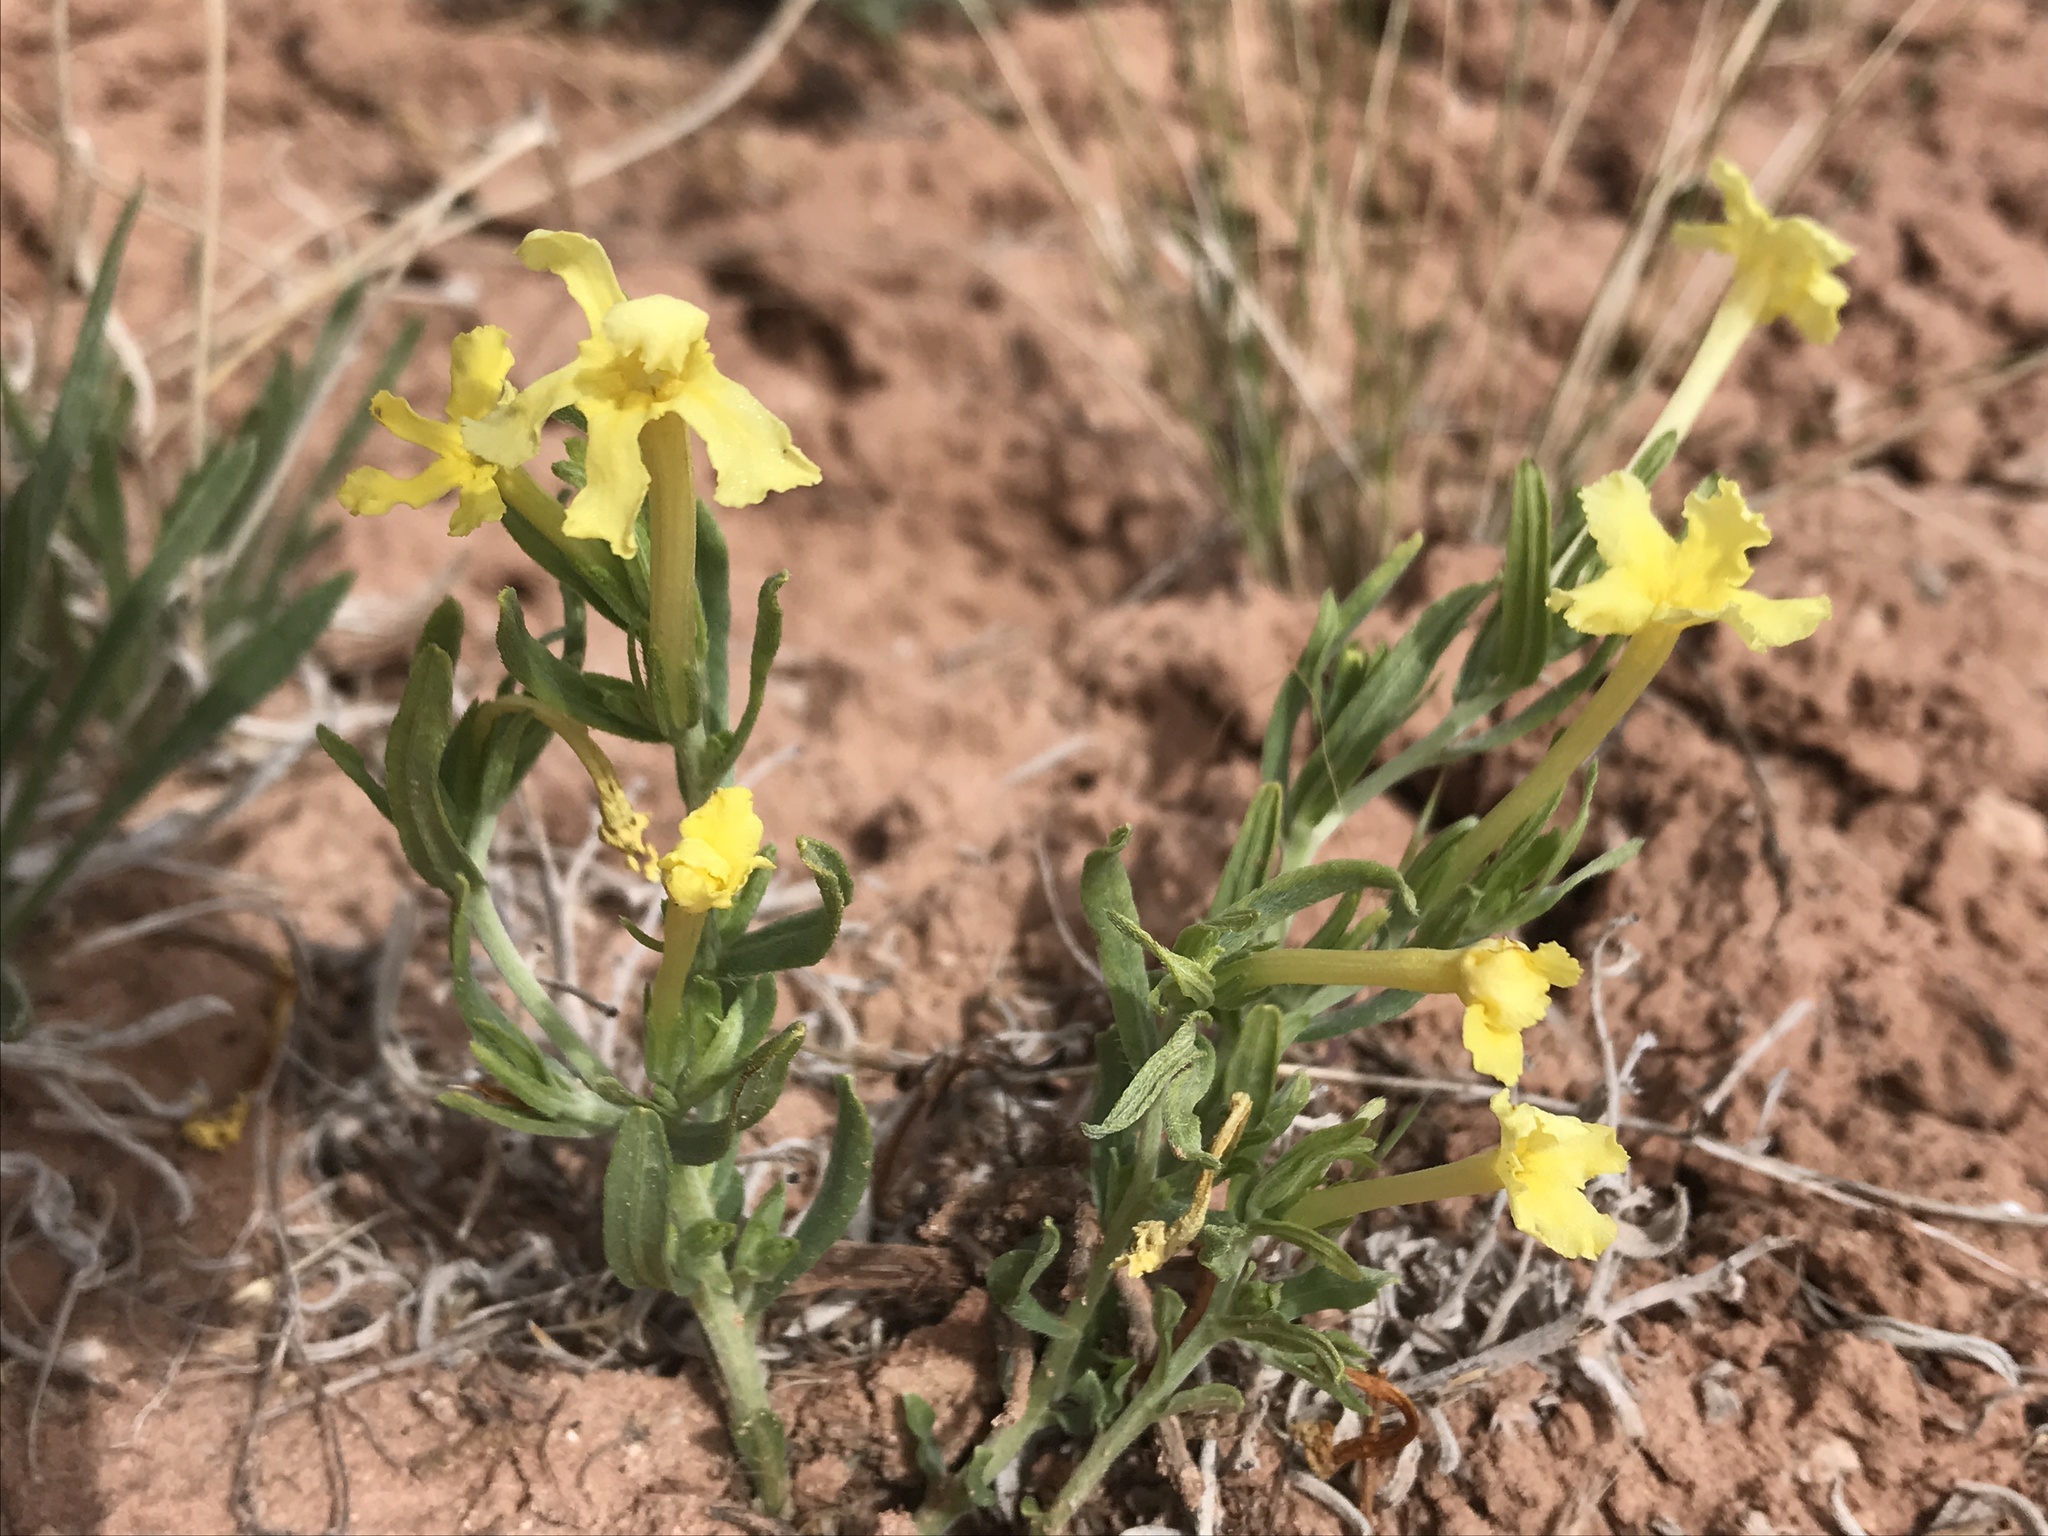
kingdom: Plantae
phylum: Tracheophyta
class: Magnoliopsida
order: Boraginales
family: Boraginaceae
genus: Lithospermum
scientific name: Lithospermum incisum
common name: Fringed gromwell
